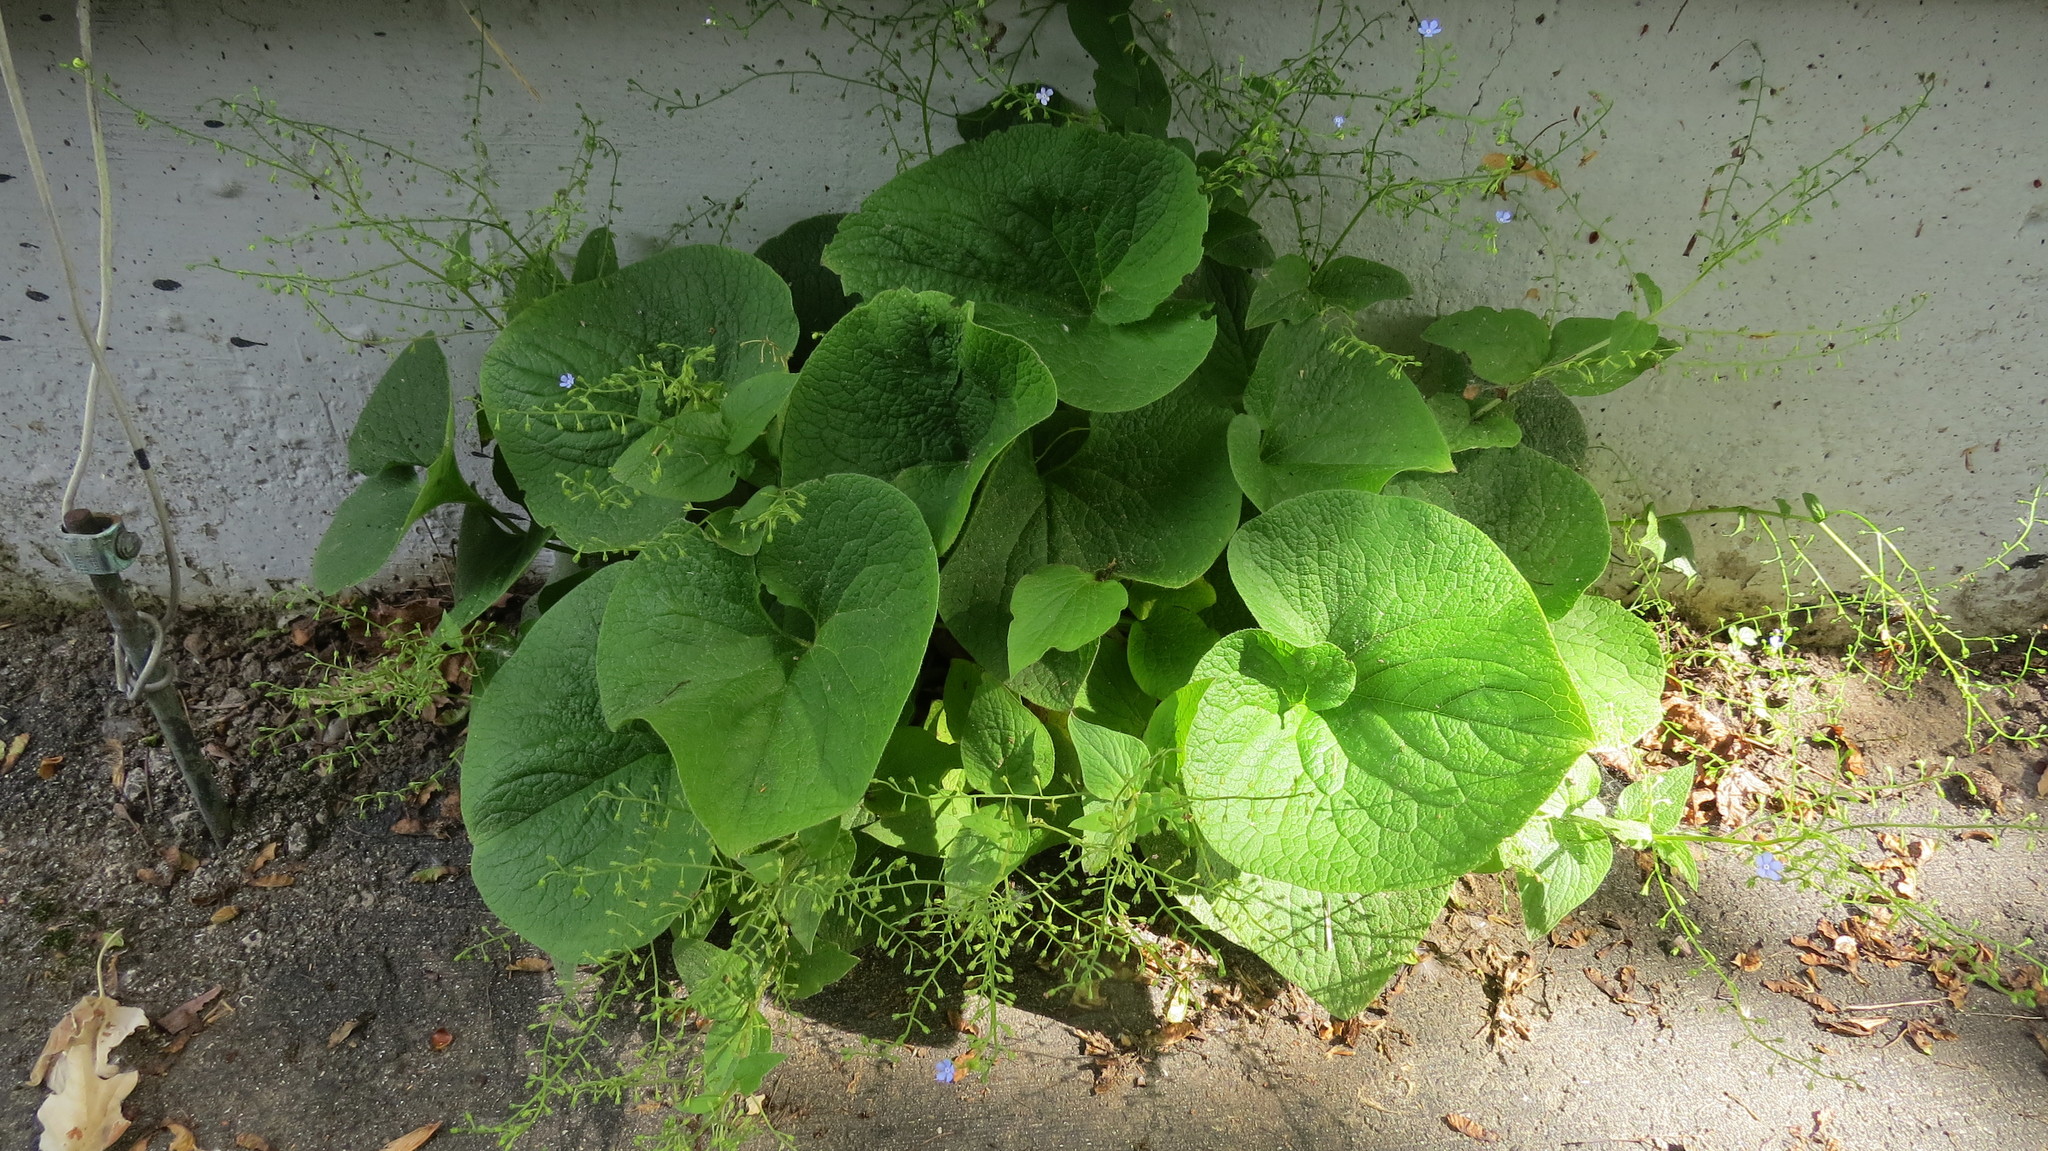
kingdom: Plantae
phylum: Tracheophyta
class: Magnoliopsida
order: Boraginales
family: Boraginaceae
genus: Brunnera
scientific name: Brunnera macrophylla
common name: Great forget-me-not
